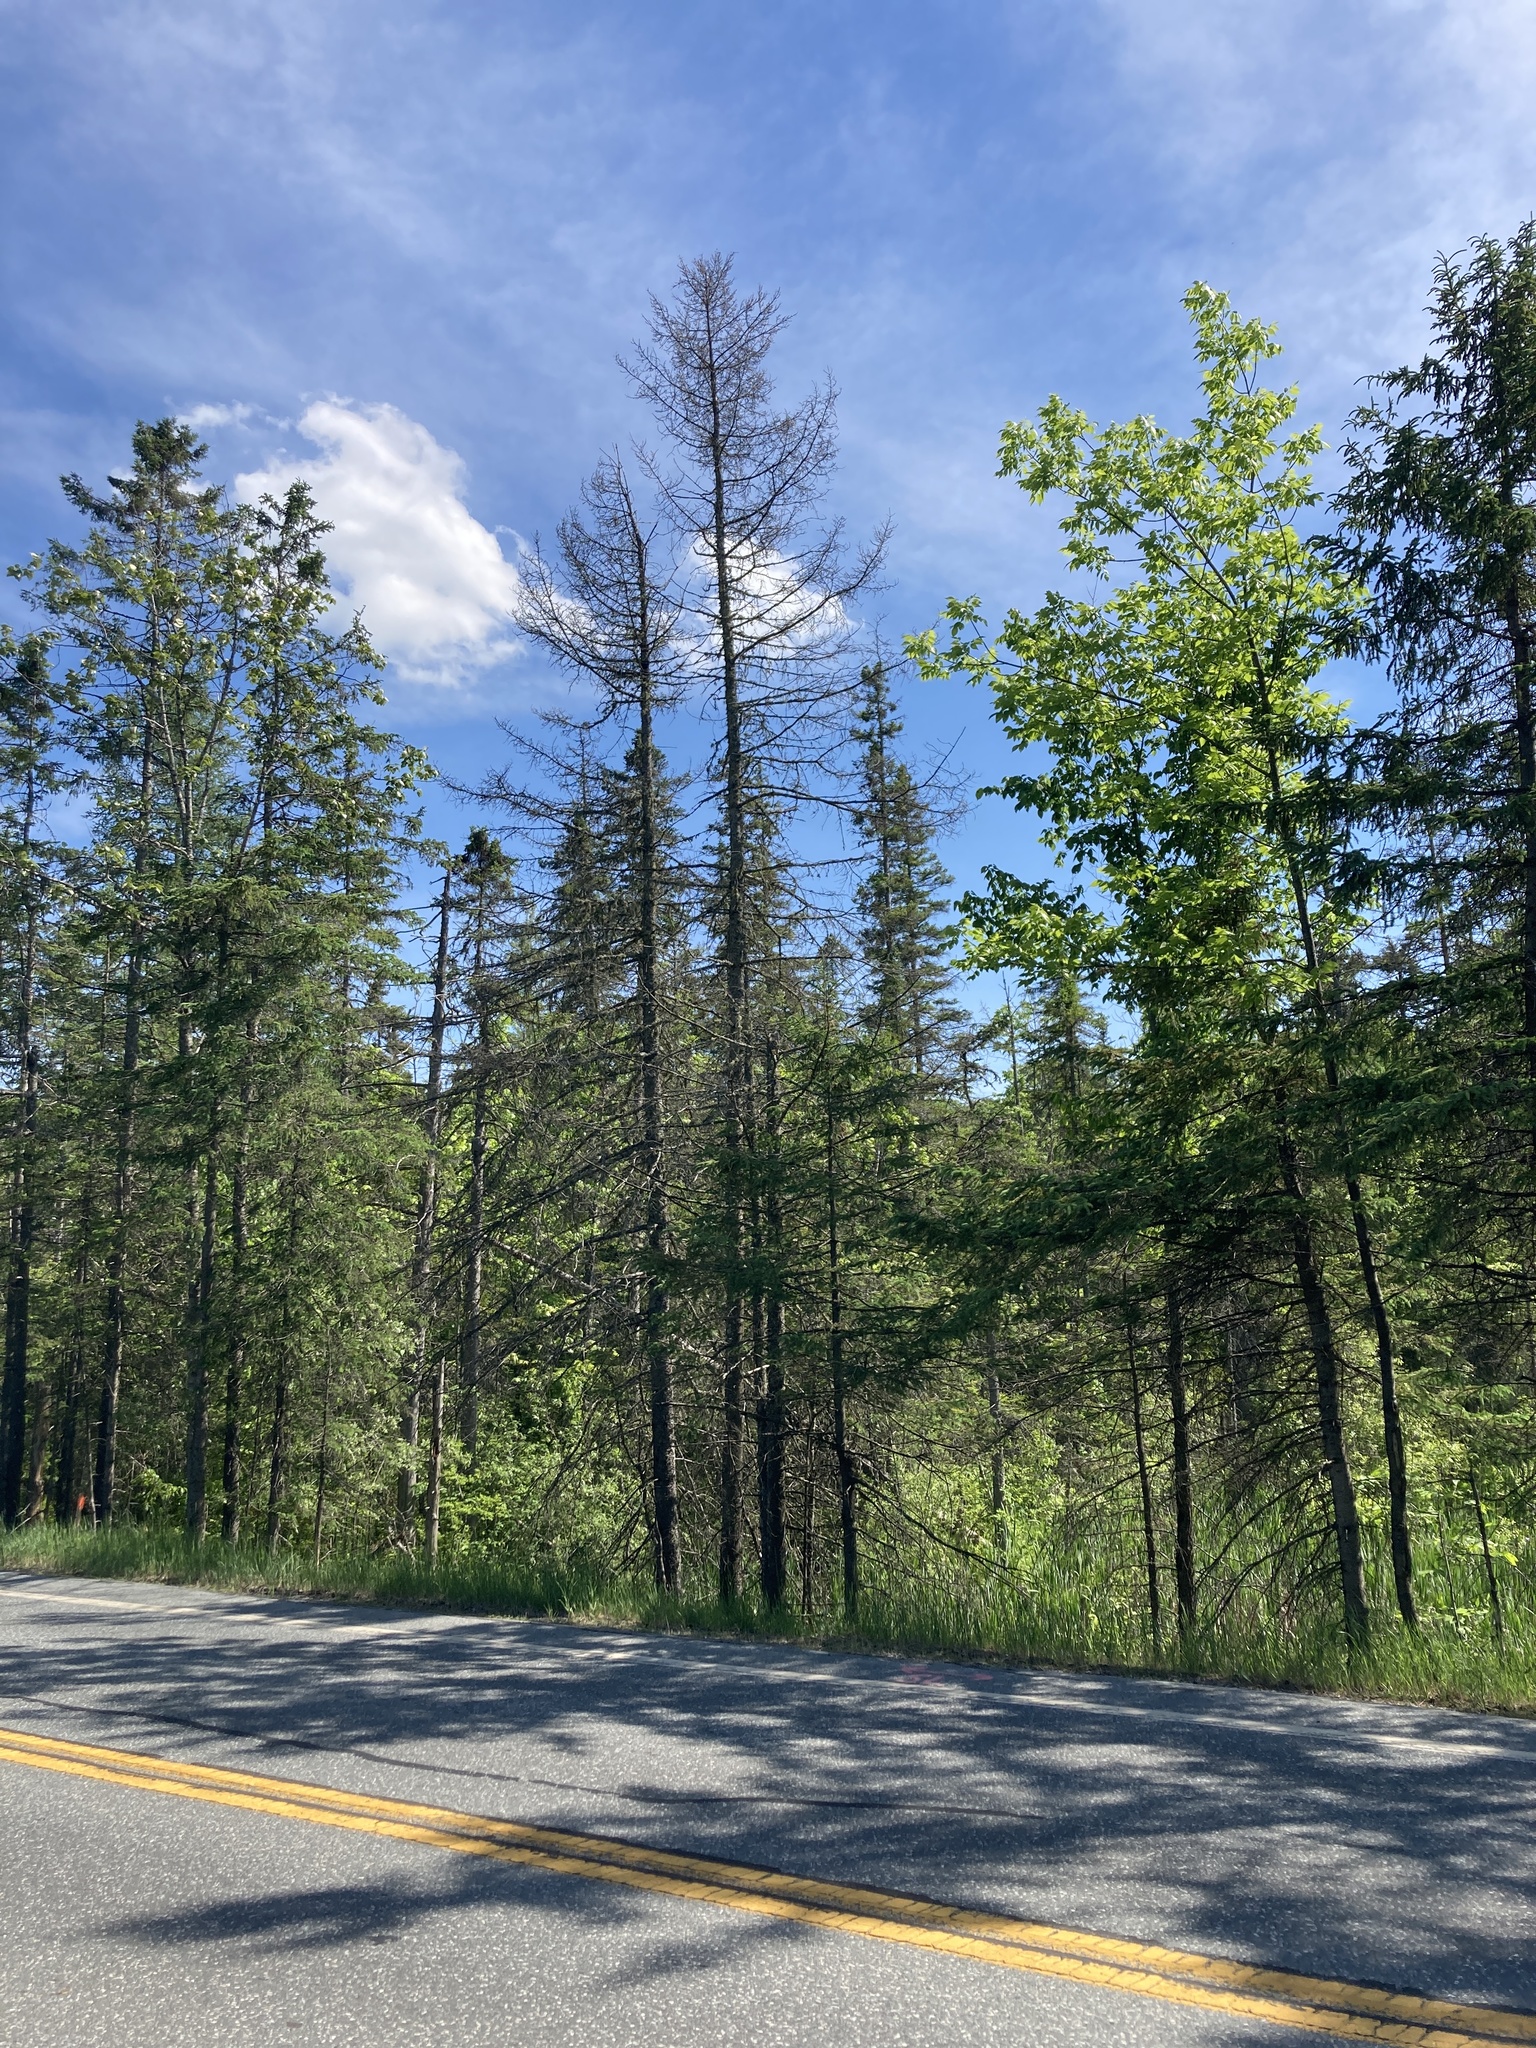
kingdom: Plantae
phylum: Tracheophyta
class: Pinopsida
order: Pinales
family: Pinaceae
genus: Picea
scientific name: Picea mariana
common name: Black spruce
